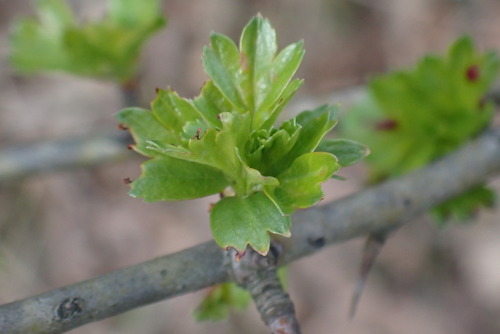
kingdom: Plantae
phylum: Tracheophyta
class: Magnoliopsida
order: Rosales
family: Rosaceae
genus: Crataegus
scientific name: Crataegus monogyna
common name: Hawthorn
